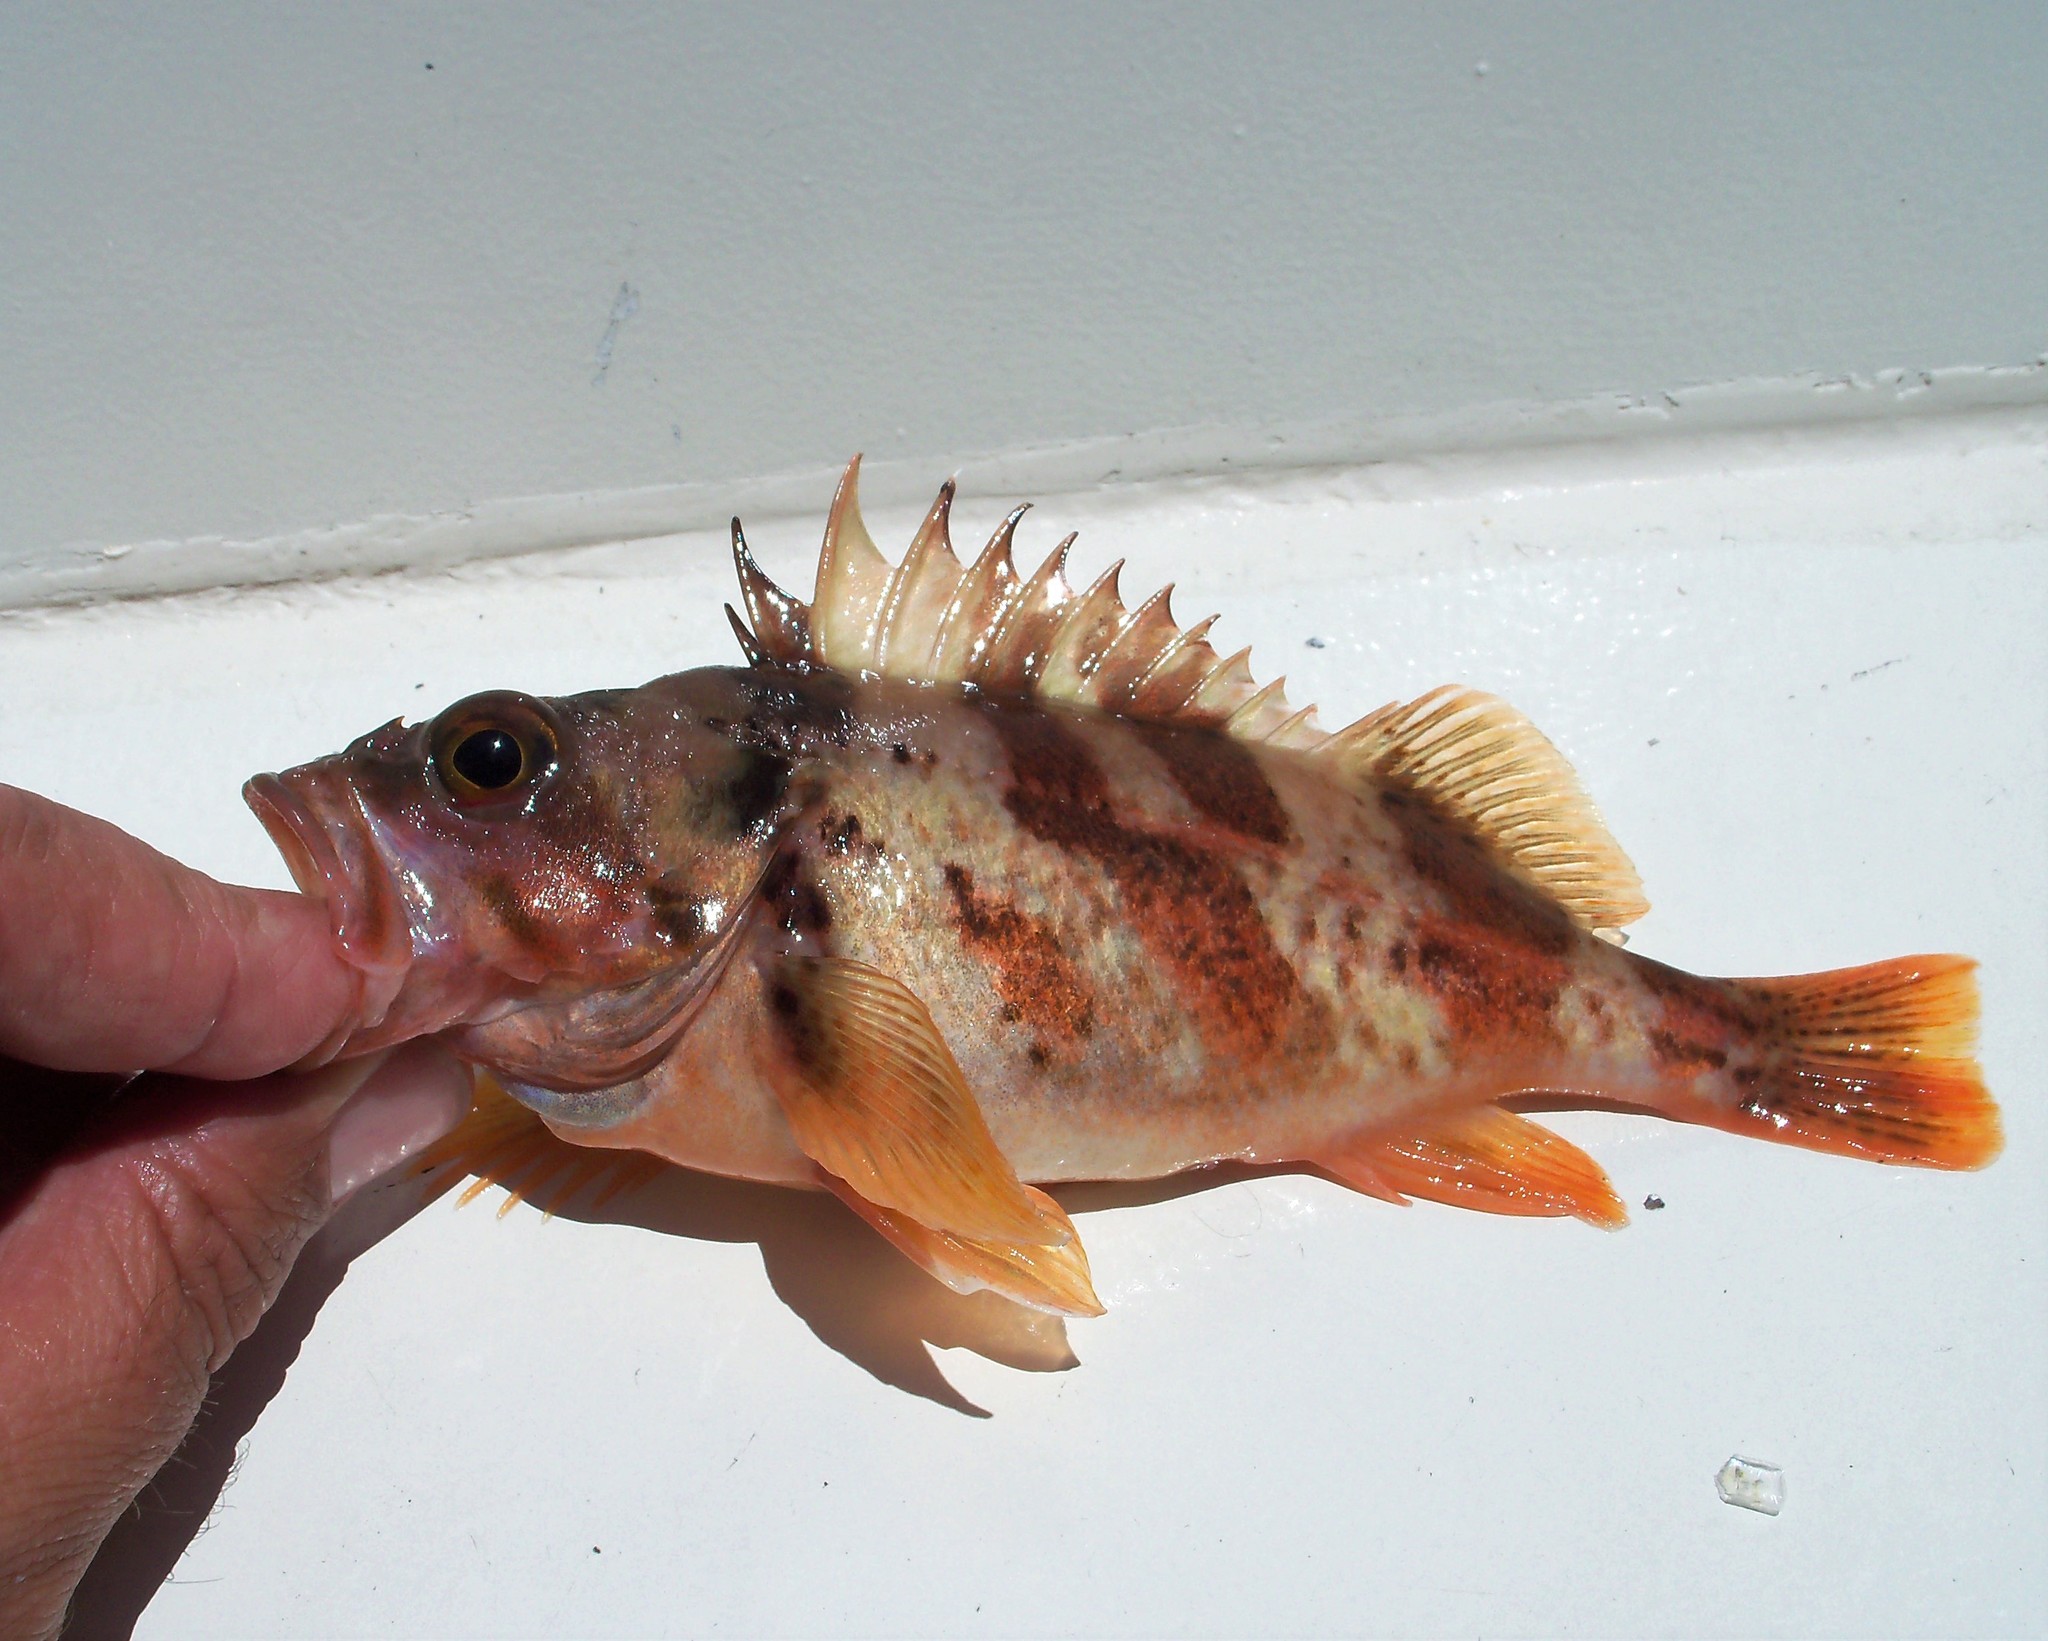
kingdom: Animalia
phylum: Chordata
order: Scorpaeniformes
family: Sebastidae
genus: Sebastes
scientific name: Sebastes dallii
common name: Calico rockfish
